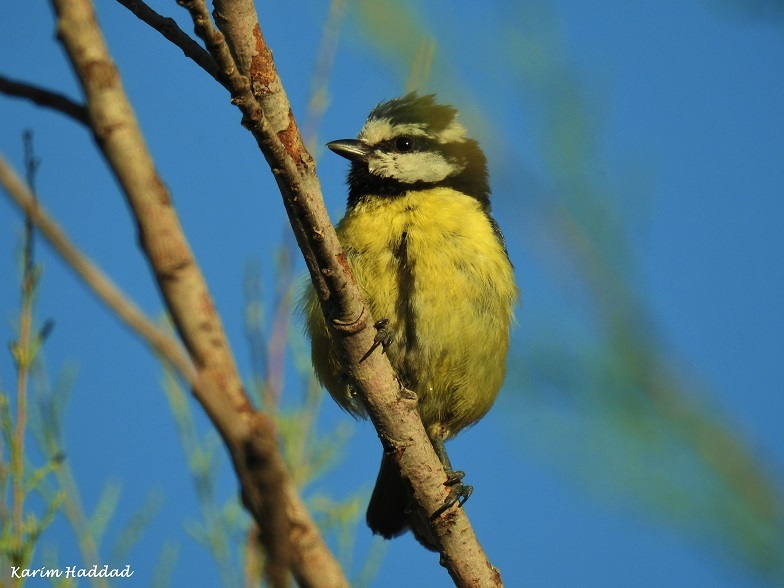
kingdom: Animalia
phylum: Chordata
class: Aves
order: Passeriformes
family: Paridae
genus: Cyanistes
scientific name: Cyanistes teneriffae
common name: African blue tit
